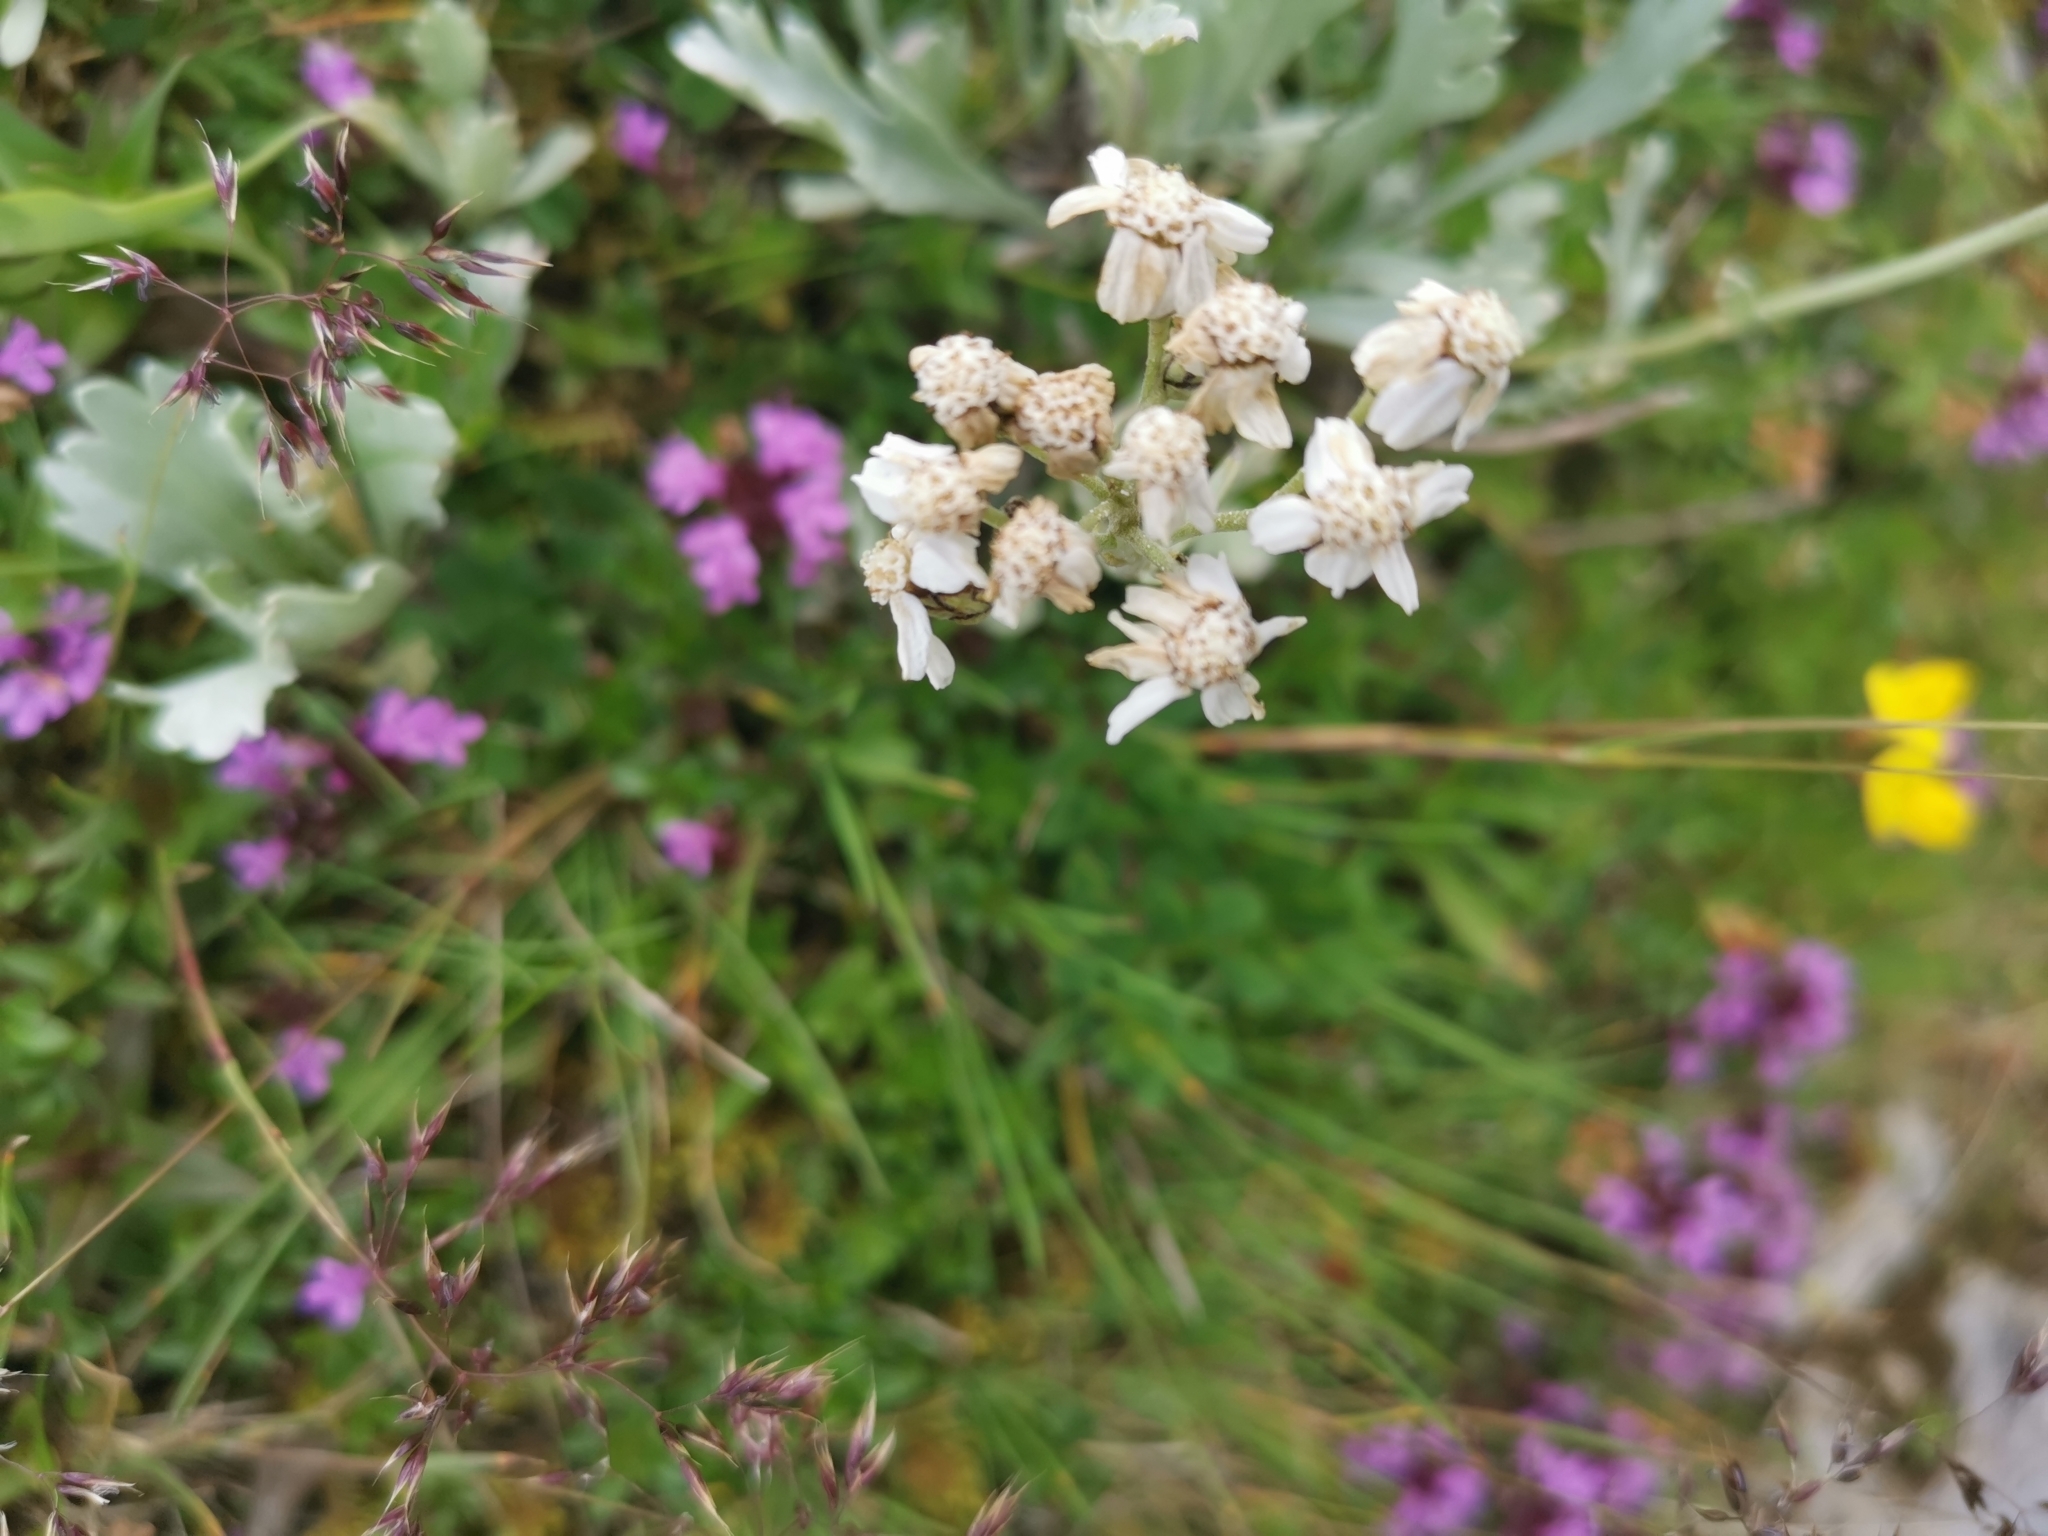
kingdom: Plantae
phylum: Tracheophyta
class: Magnoliopsida
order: Asterales
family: Asteraceae
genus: Achillea
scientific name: Achillea clavennae
